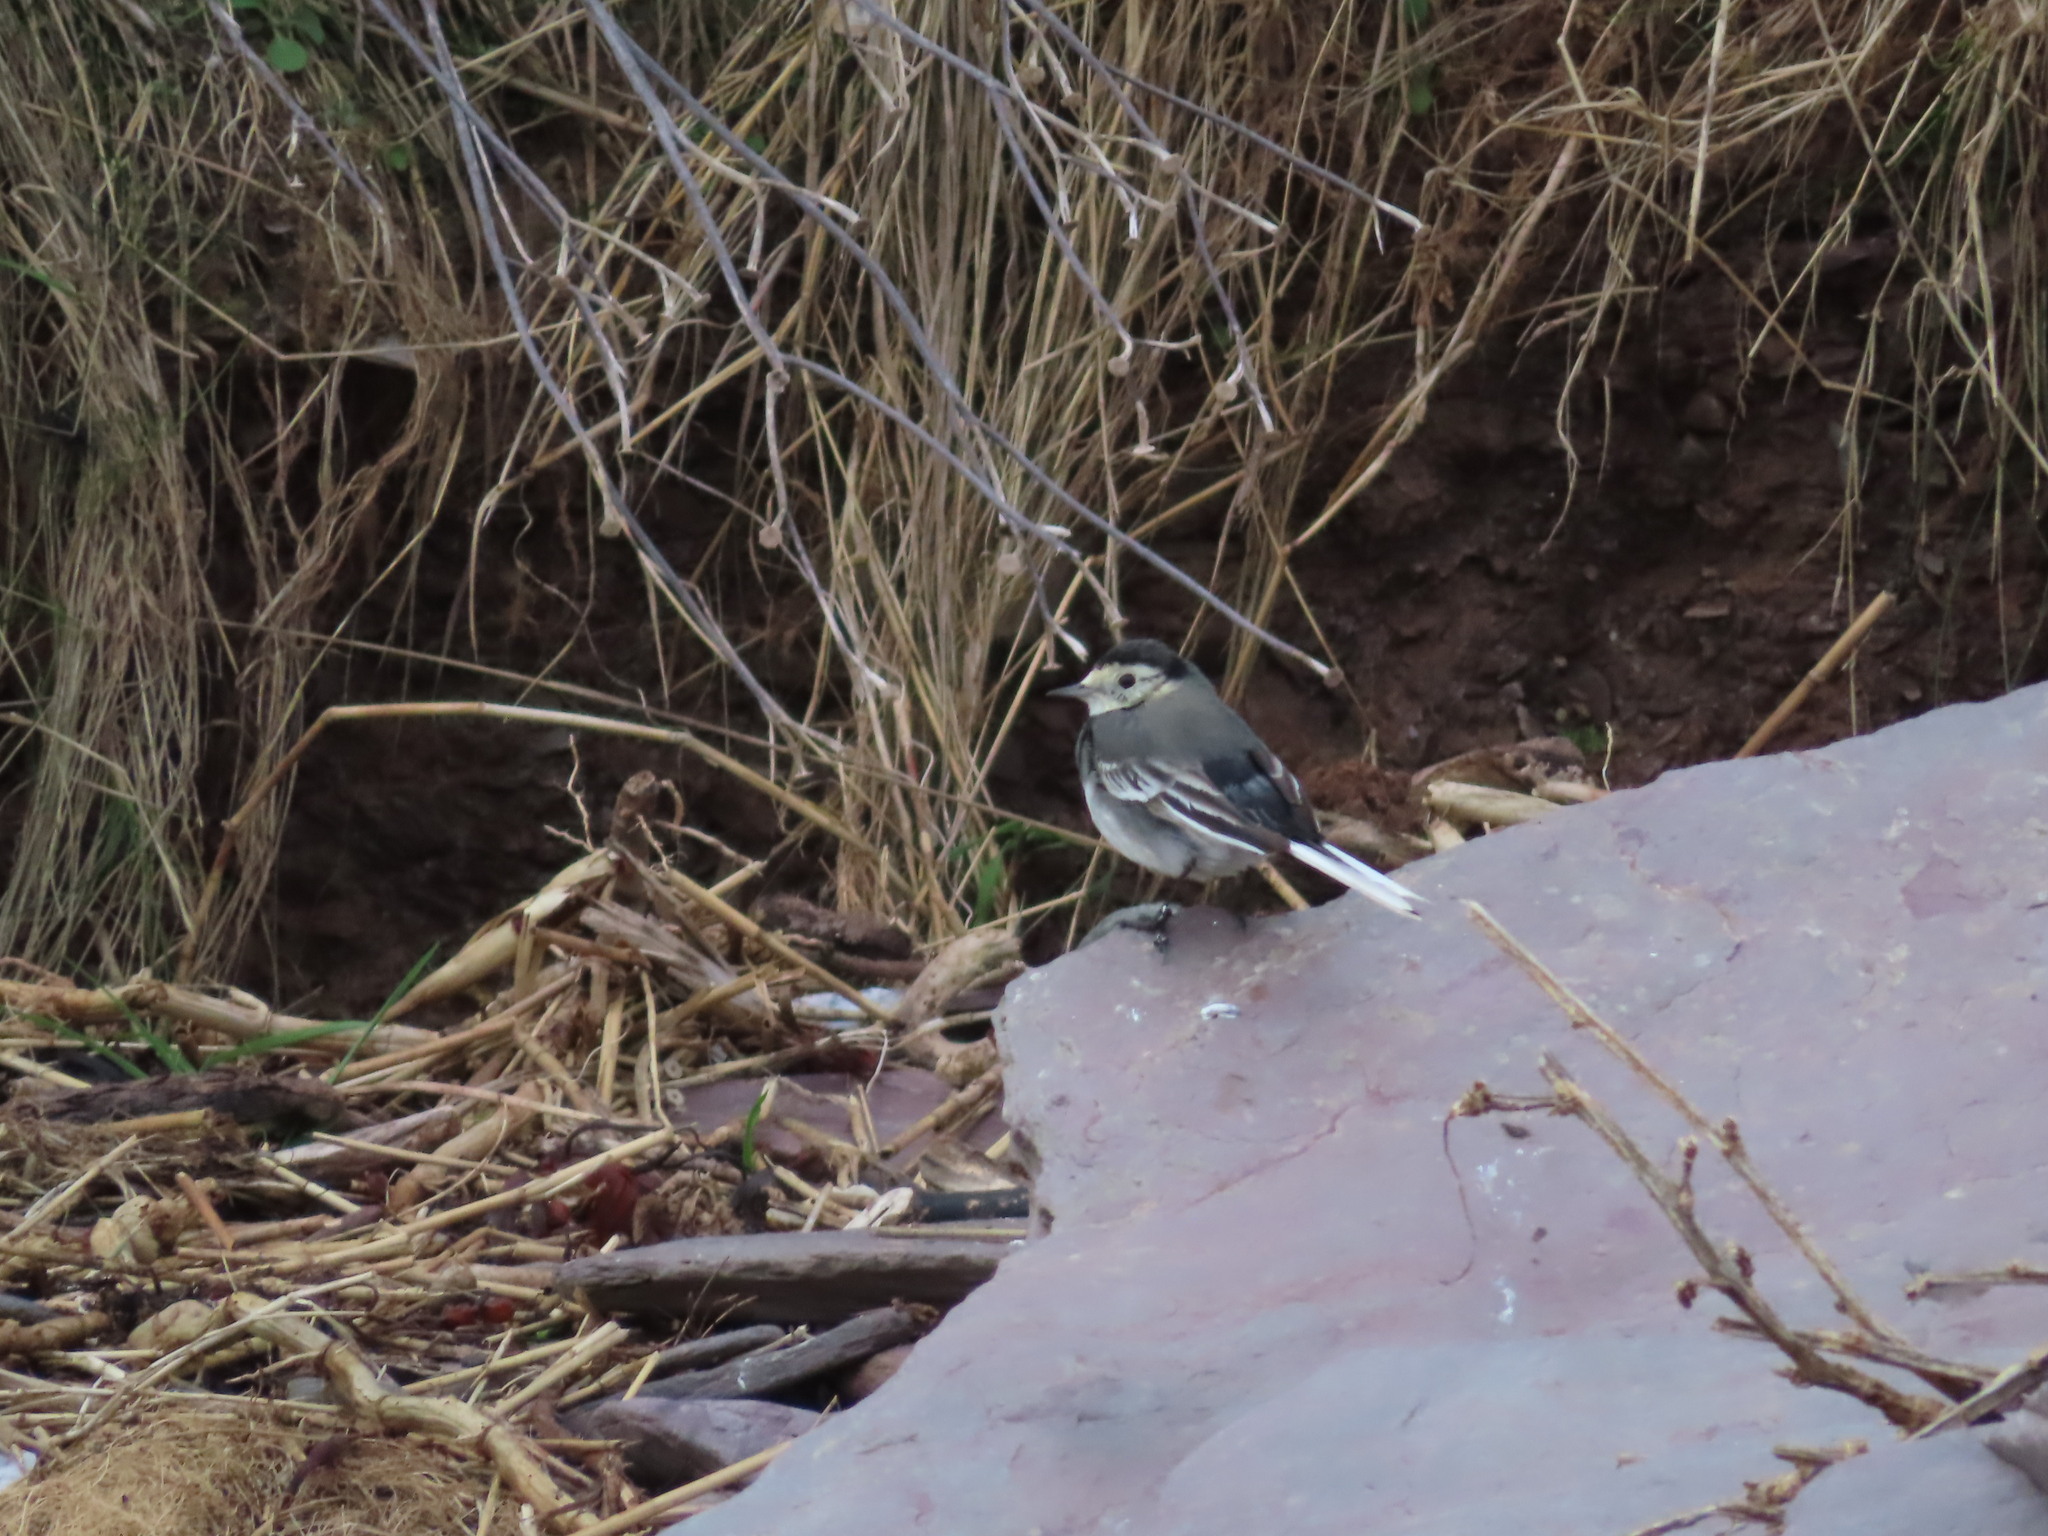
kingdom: Animalia
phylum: Chordata
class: Aves
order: Passeriformes
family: Motacillidae
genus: Motacilla
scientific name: Motacilla alba
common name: White wagtail
